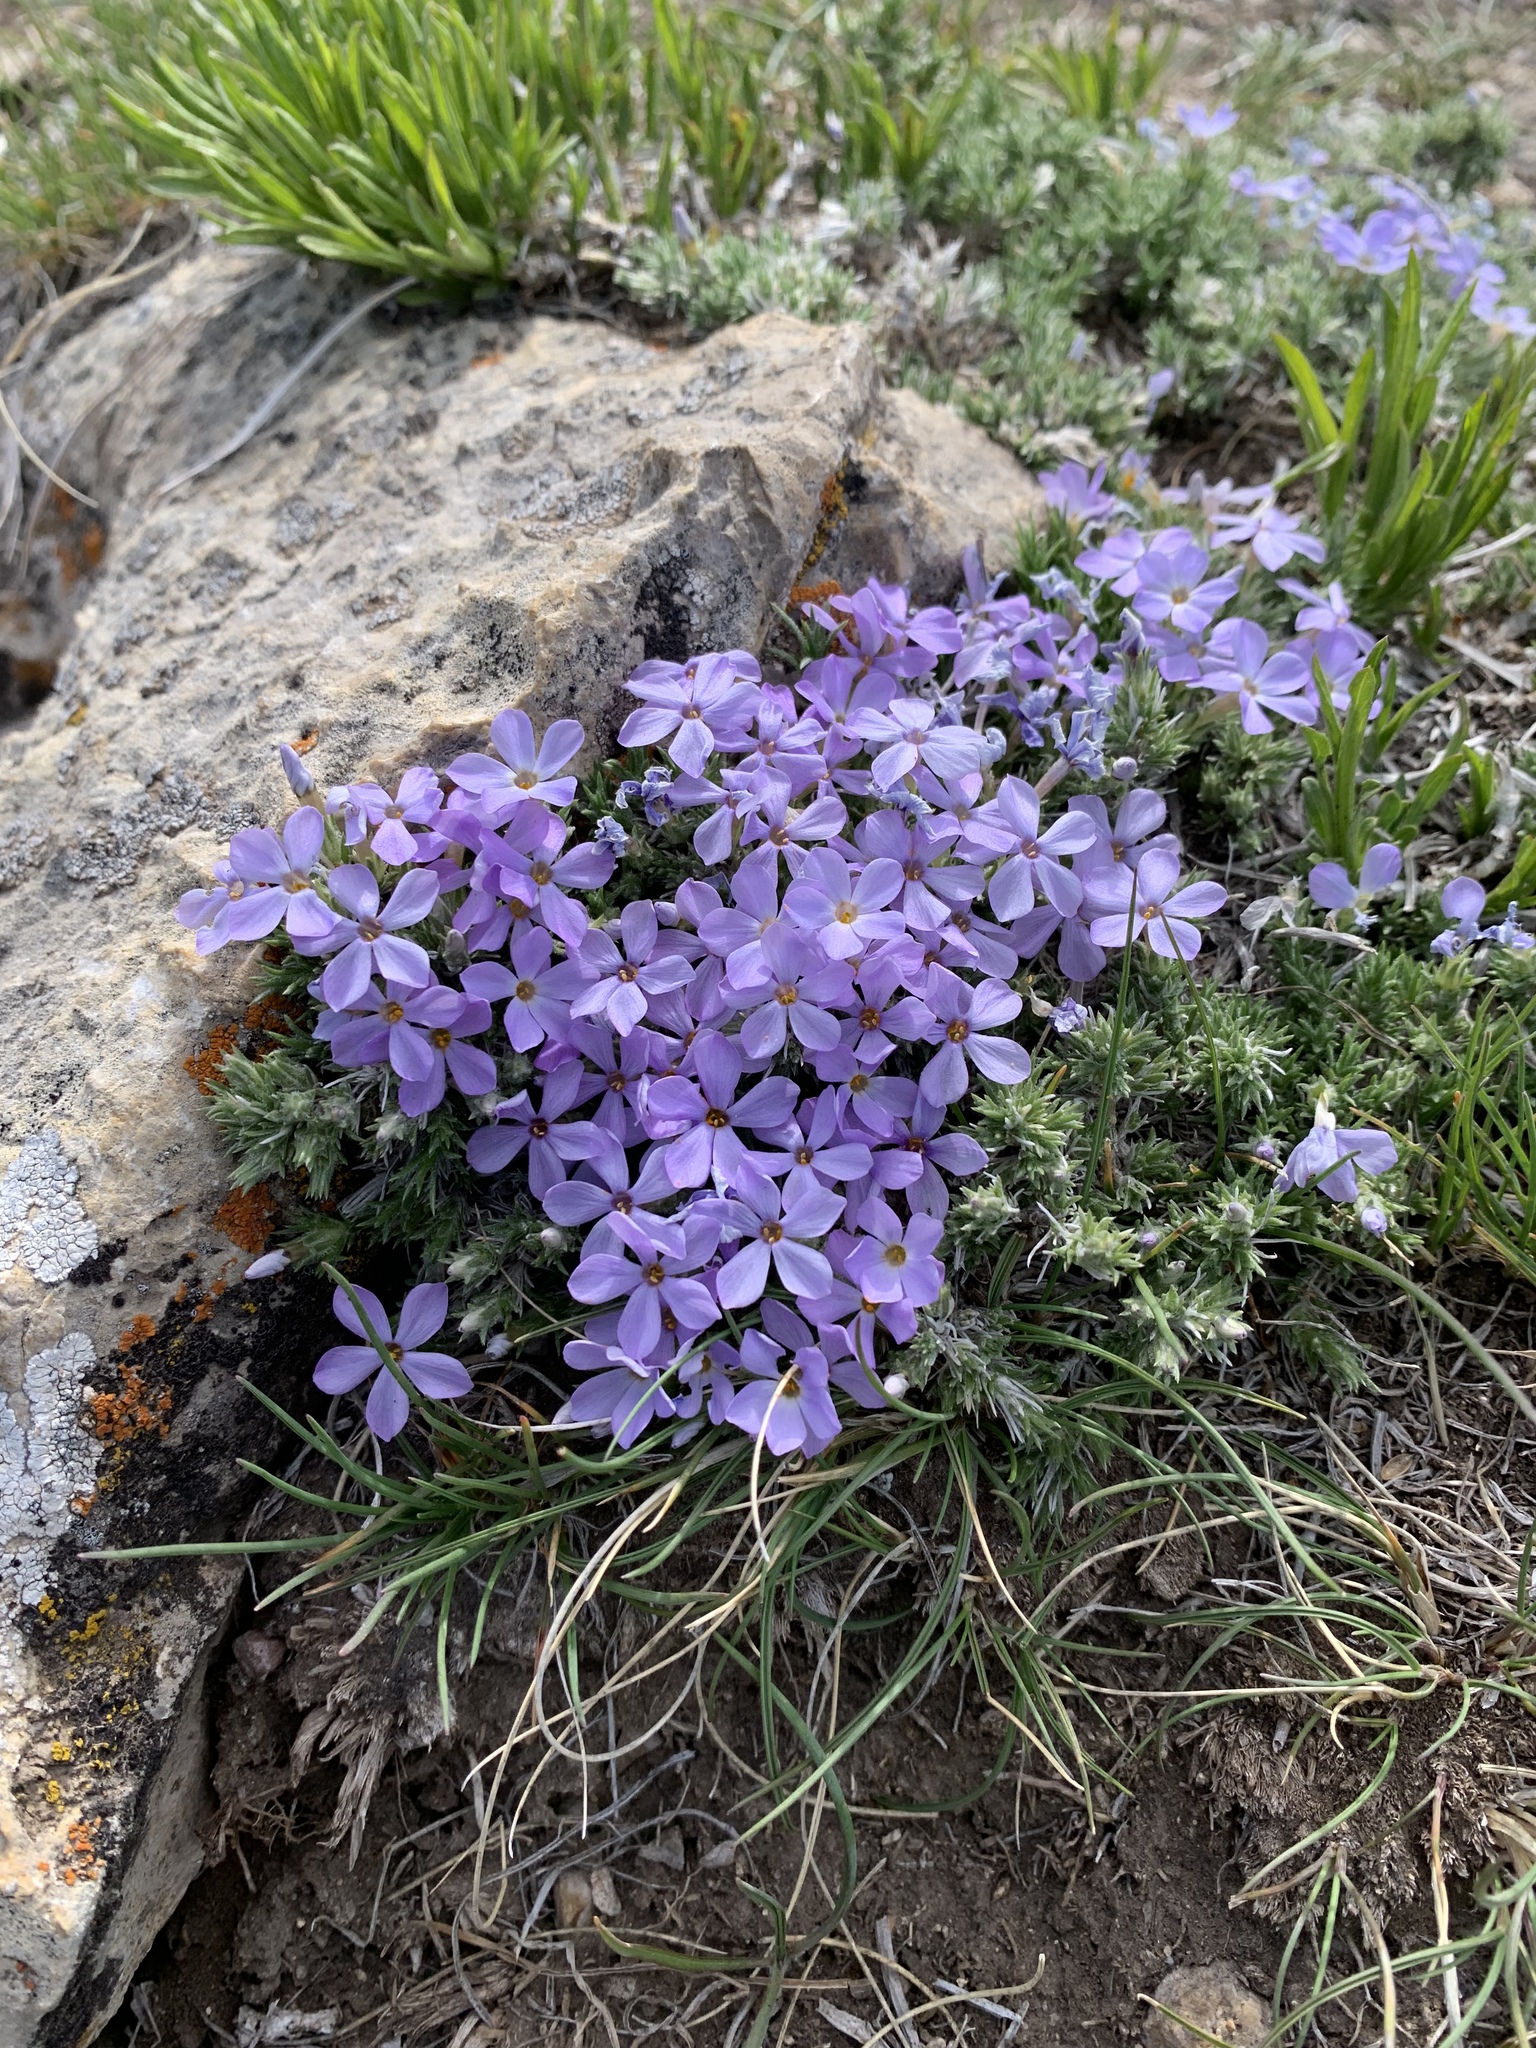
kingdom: Plantae
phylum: Tracheophyta
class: Magnoliopsida
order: Ericales
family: Polemoniaceae
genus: Phlox
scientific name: Phlox hoodii
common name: Moss phlox
